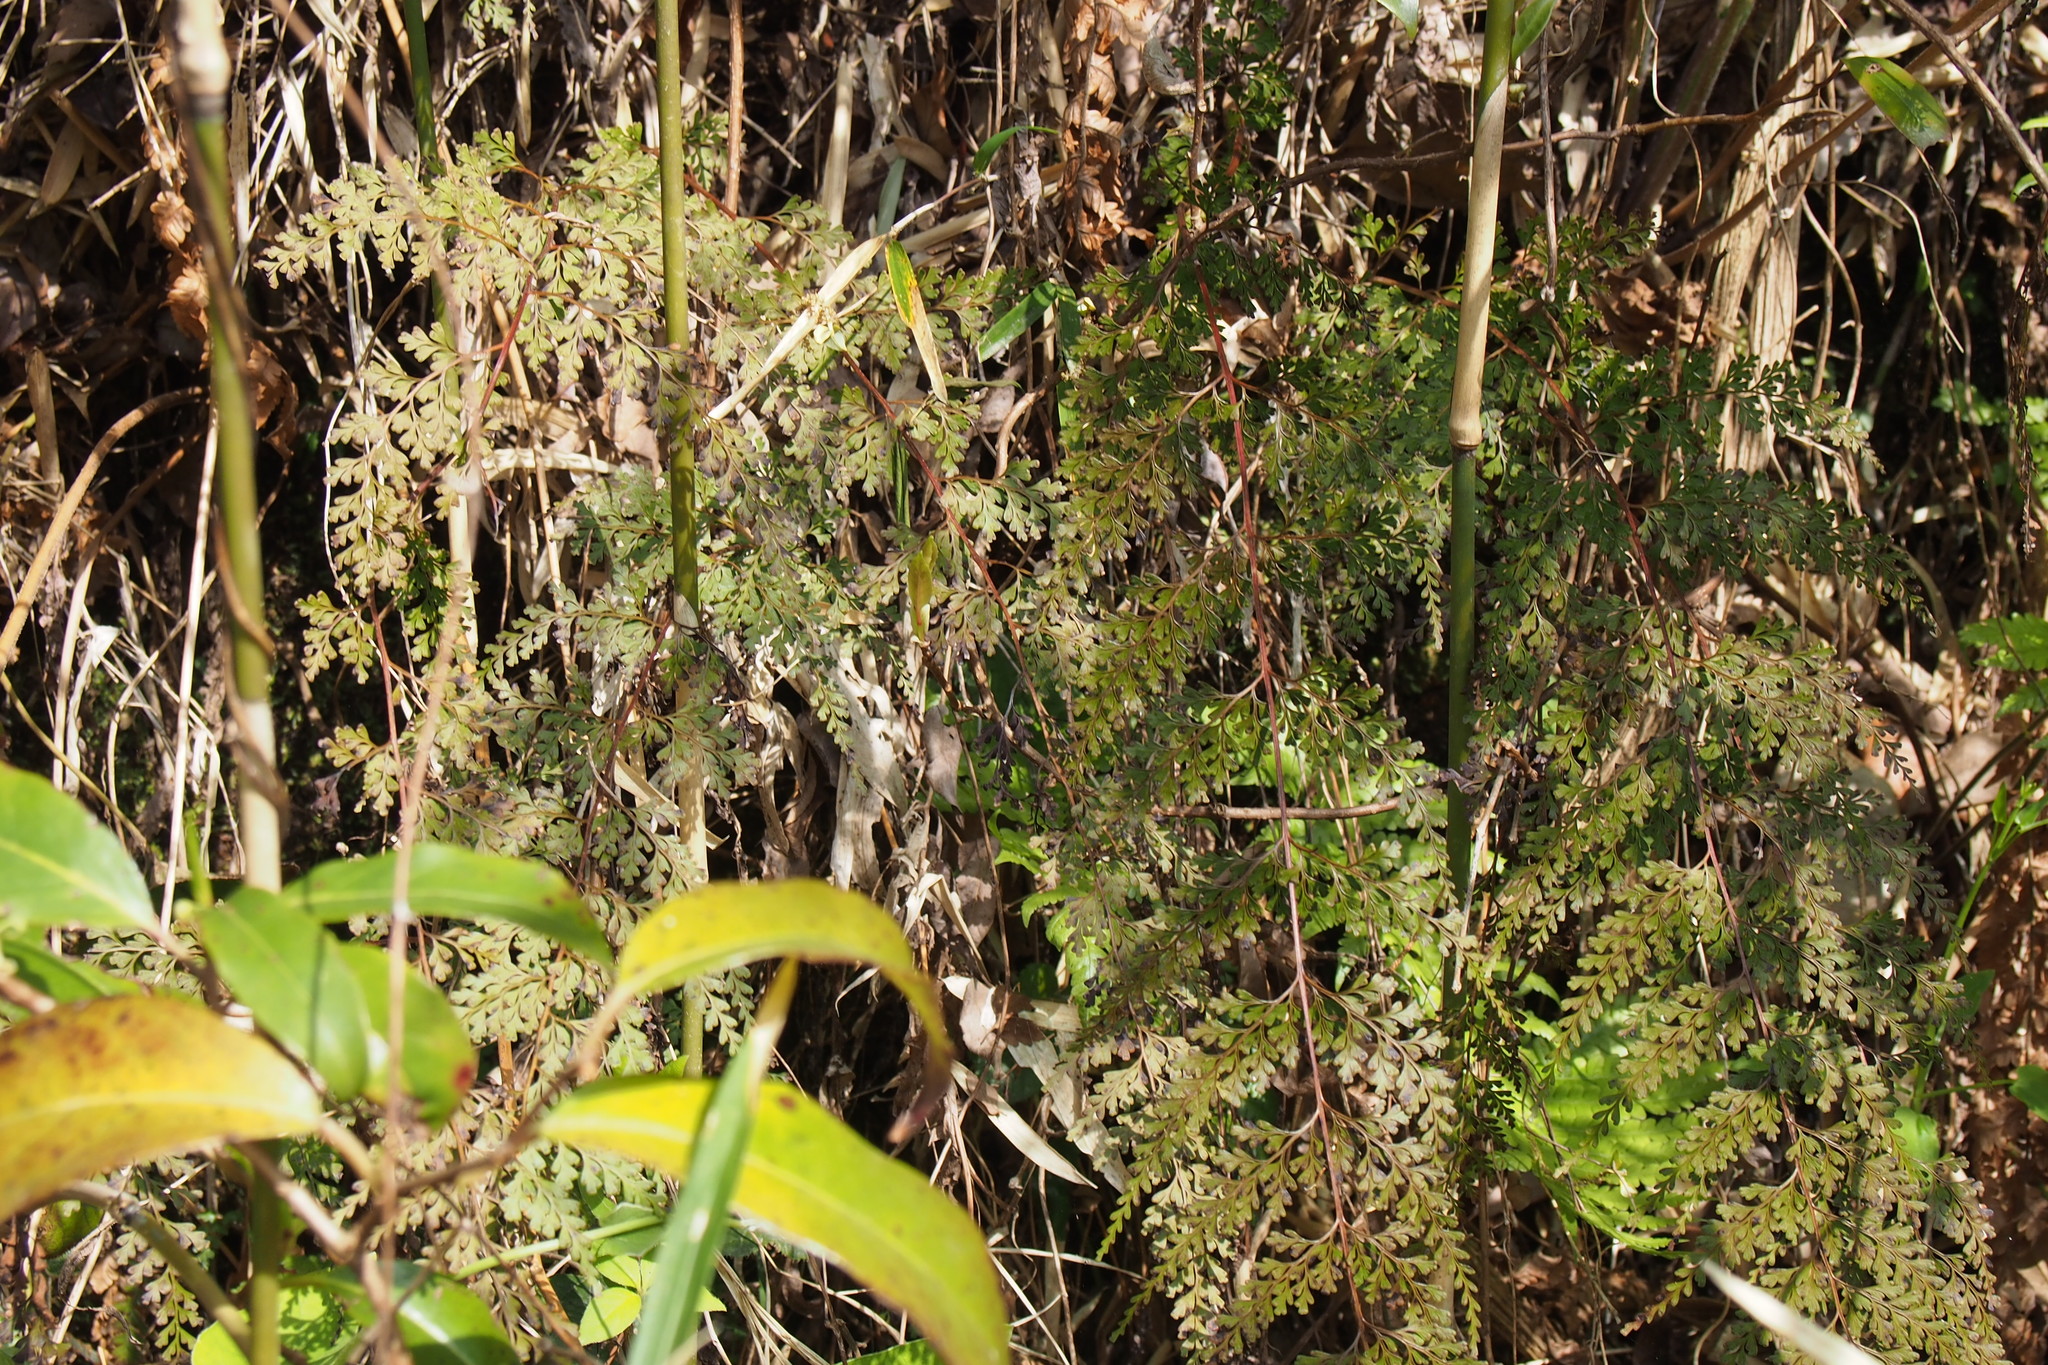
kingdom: Plantae
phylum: Tracheophyta
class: Polypodiopsida
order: Polypodiales
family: Lindsaeaceae
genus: Odontosoria
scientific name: Odontosoria chinensis
